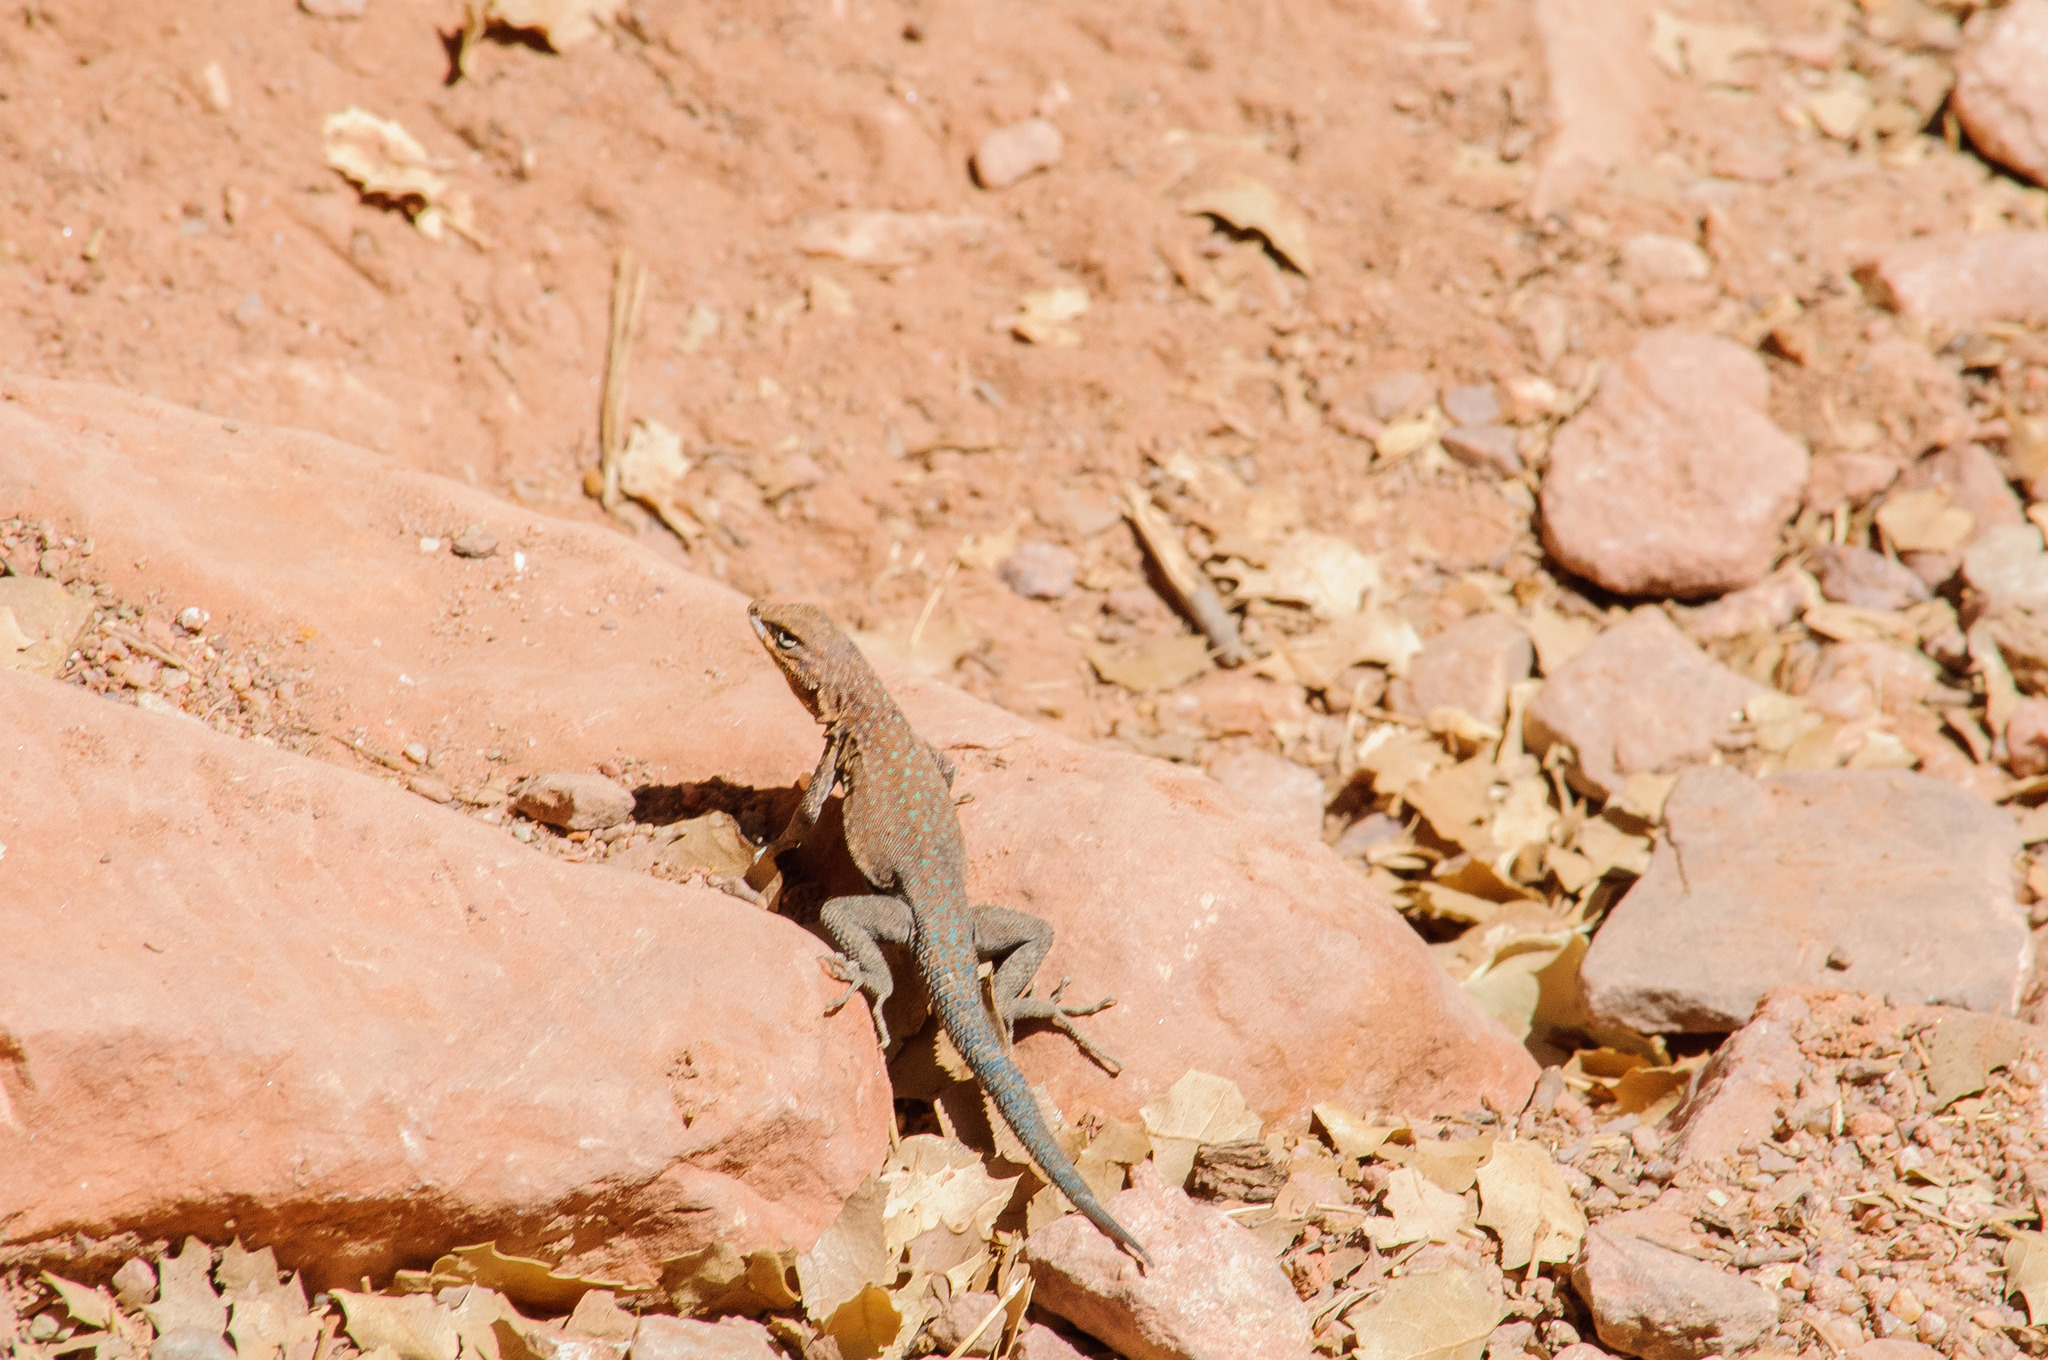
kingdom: Animalia
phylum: Chordata
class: Squamata
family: Phrynosomatidae
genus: Uta
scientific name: Uta stansburiana
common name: Side-blotched lizard
